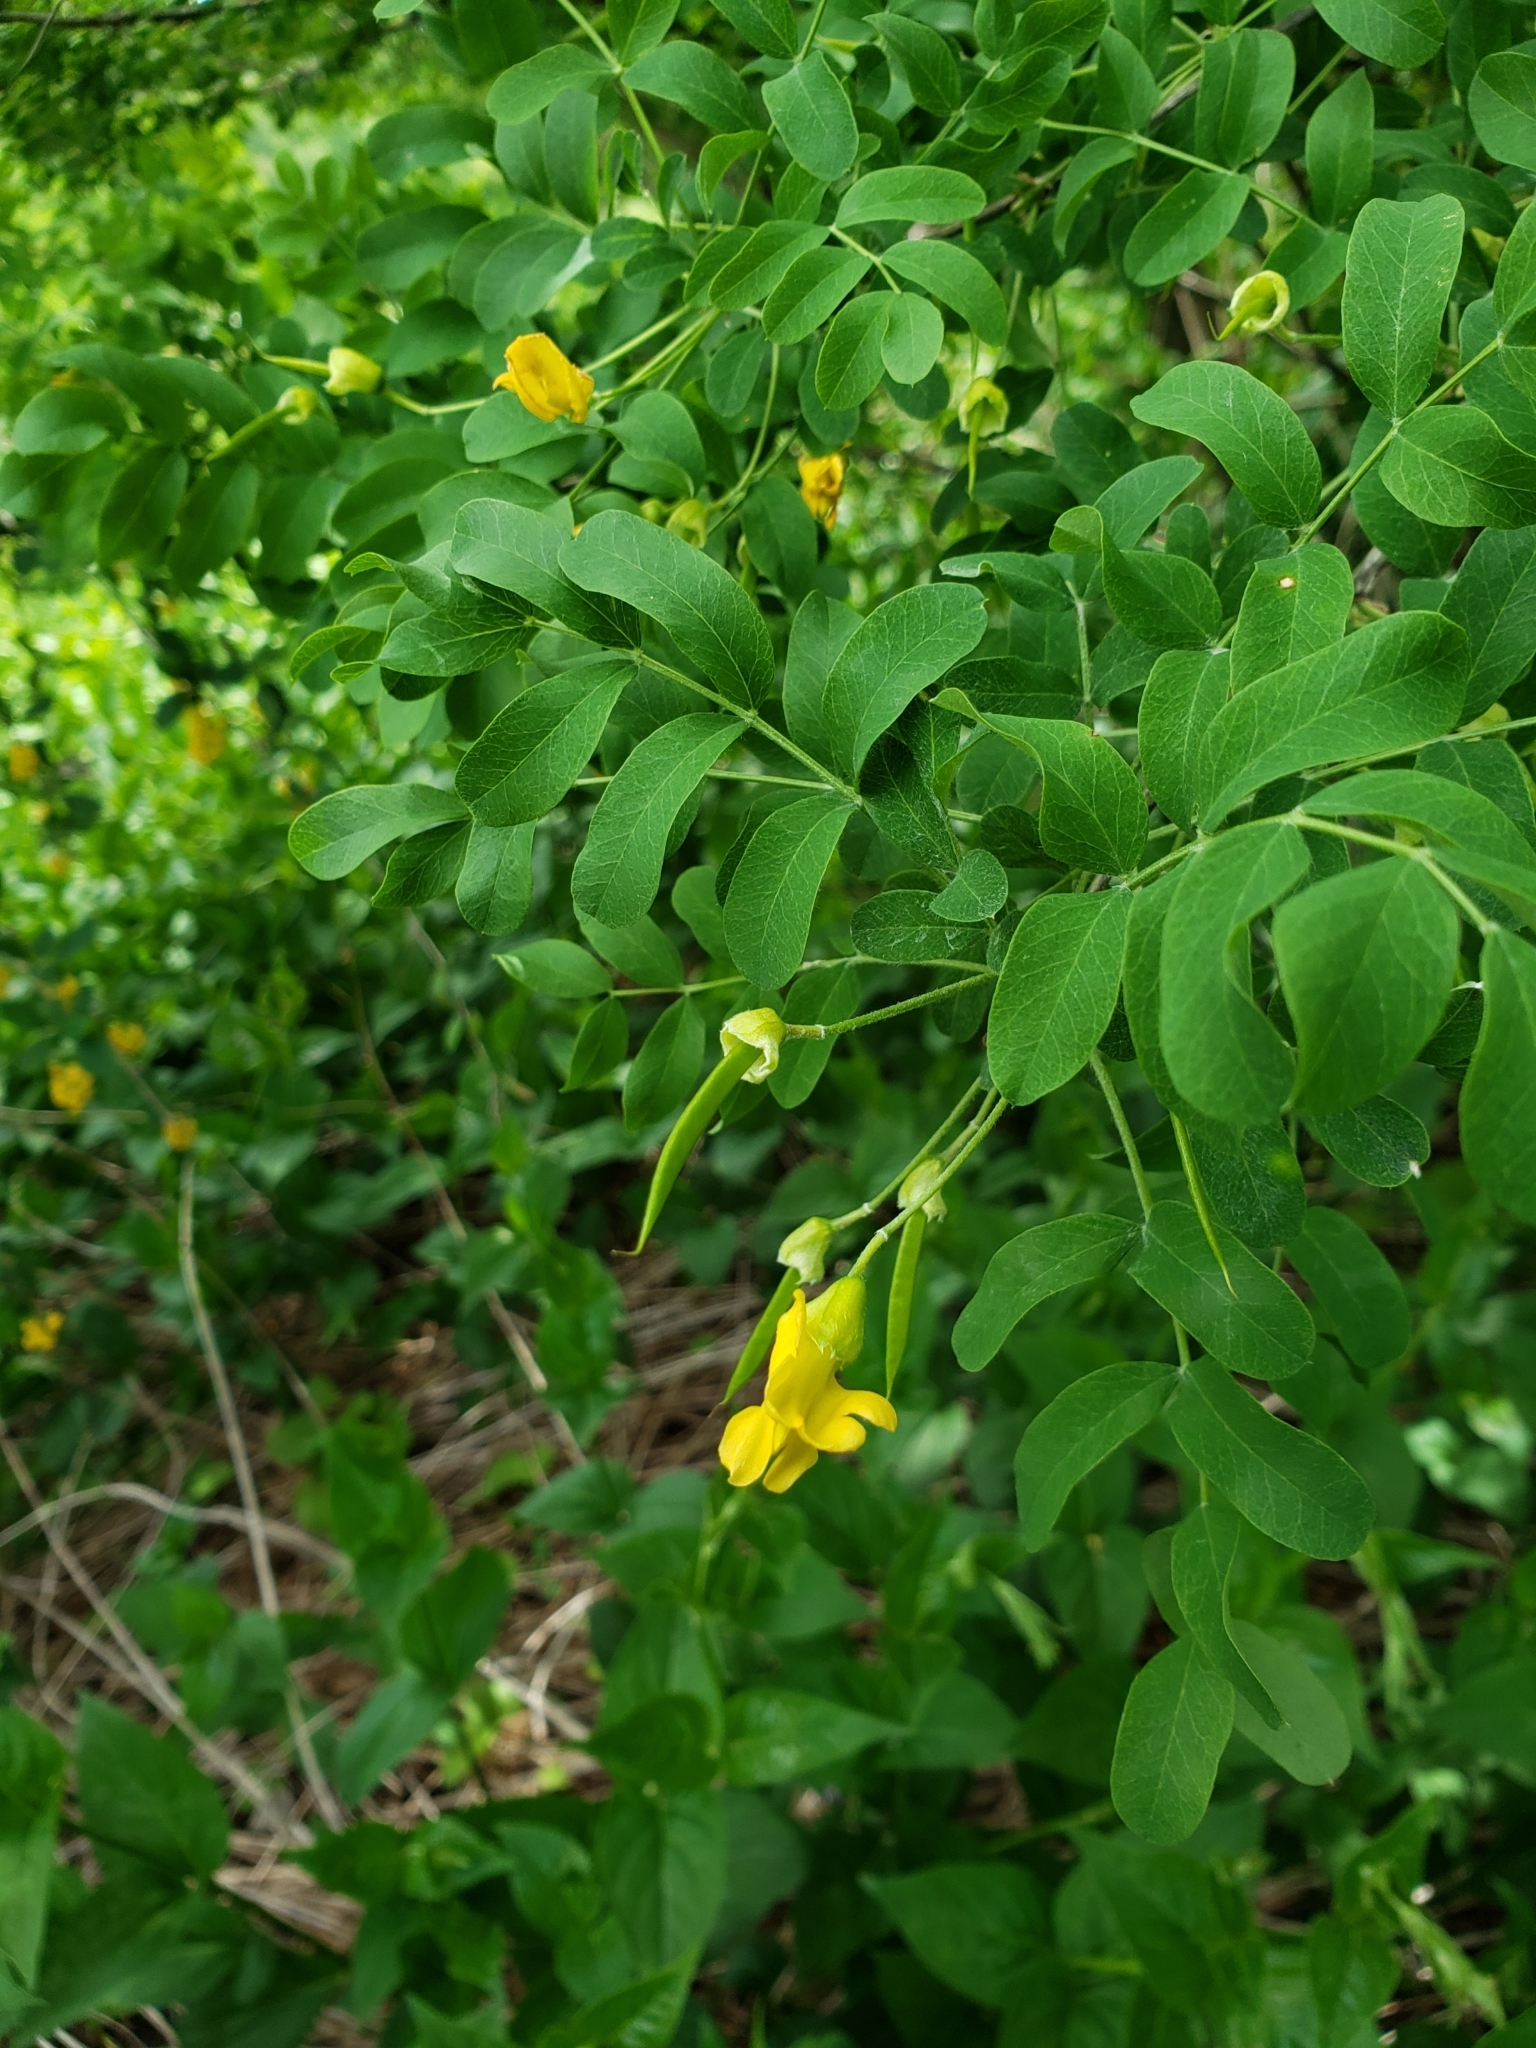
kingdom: Plantae
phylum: Tracheophyta
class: Magnoliopsida
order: Fabales
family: Fabaceae
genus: Caragana
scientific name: Caragana arborescens
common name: Siberian peashrub
